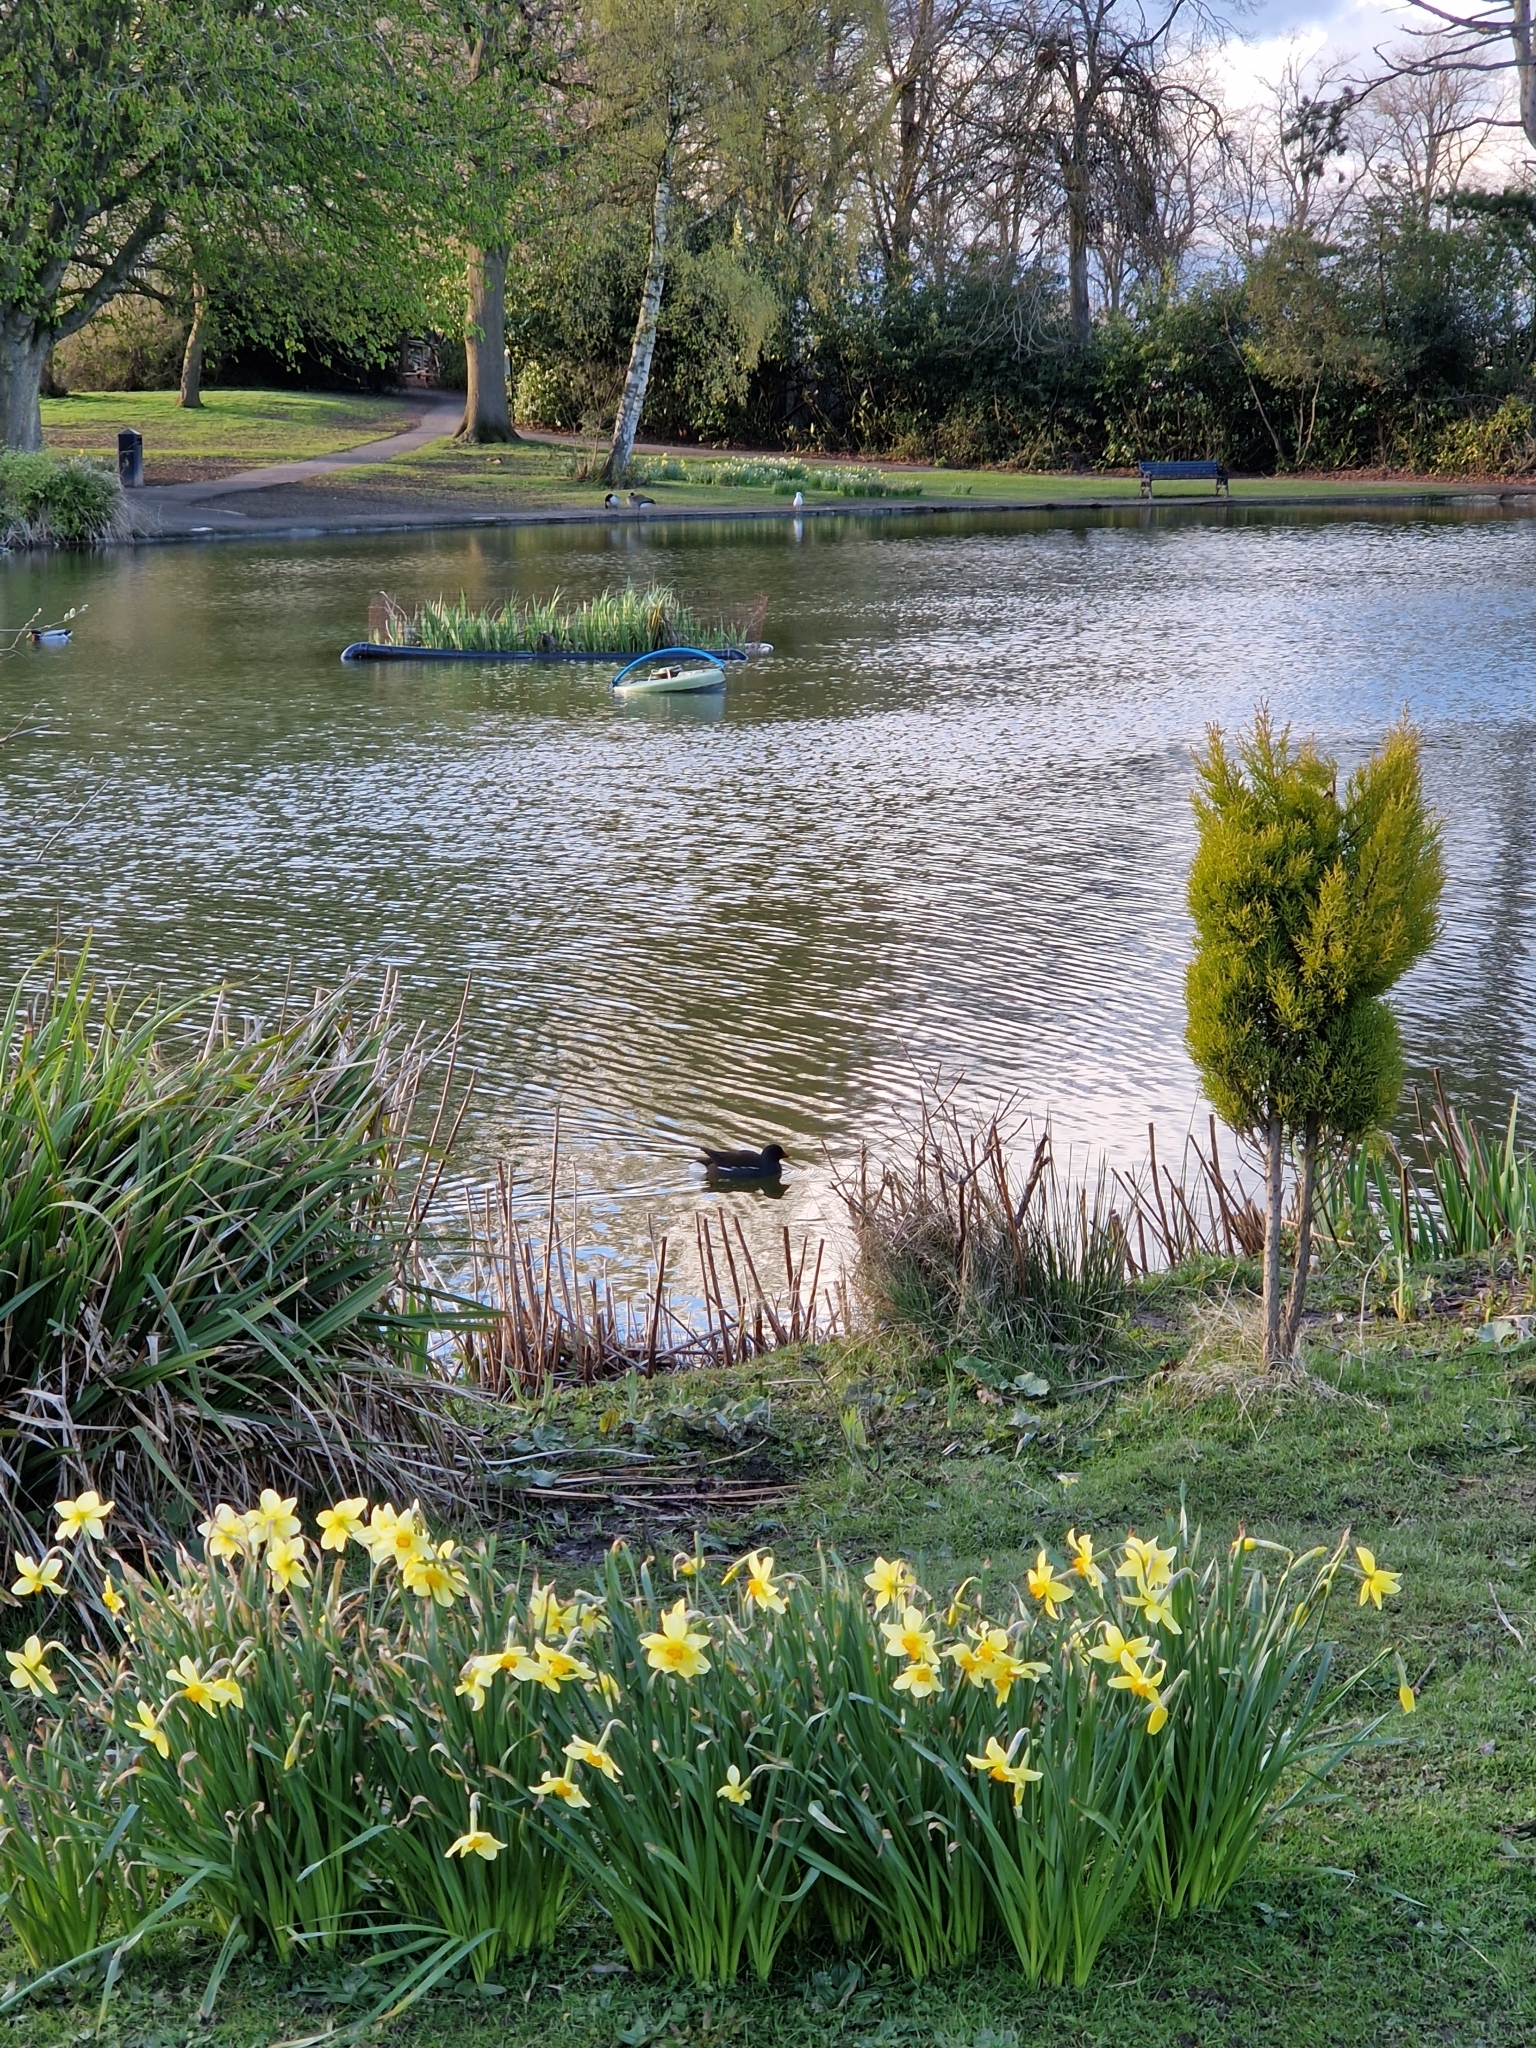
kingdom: Animalia
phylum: Chordata
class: Aves
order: Gruiformes
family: Rallidae
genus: Gallinula
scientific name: Gallinula chloropus
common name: Common moorhen
